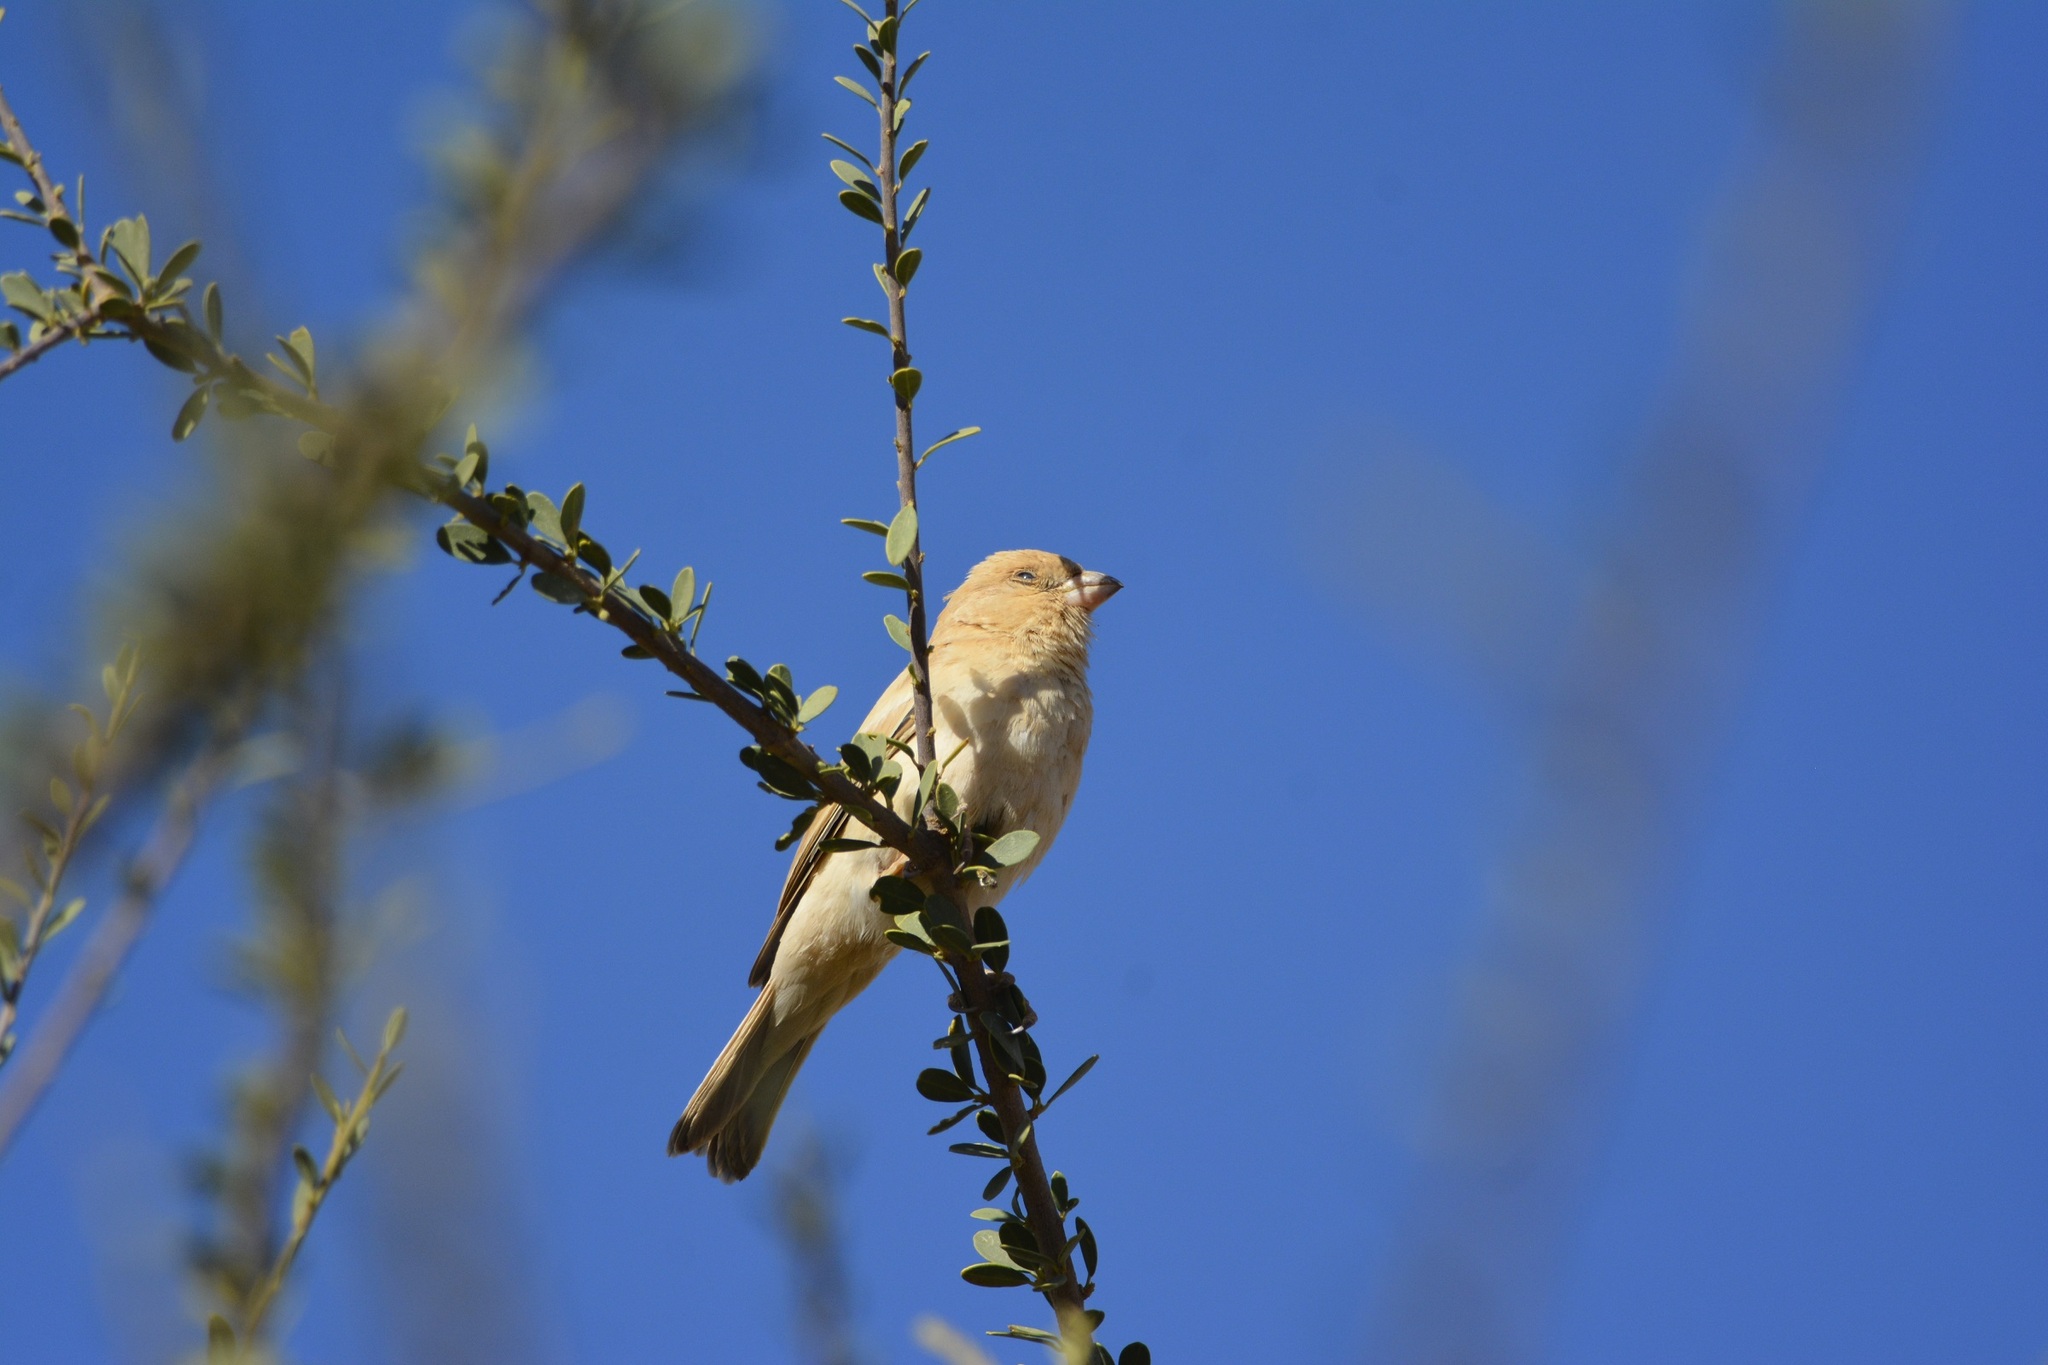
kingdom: Animalia
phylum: Chordata
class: Aves
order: Passeriformes
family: Passeridae
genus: Passer
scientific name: Passer simplex
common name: Desert sparrow
